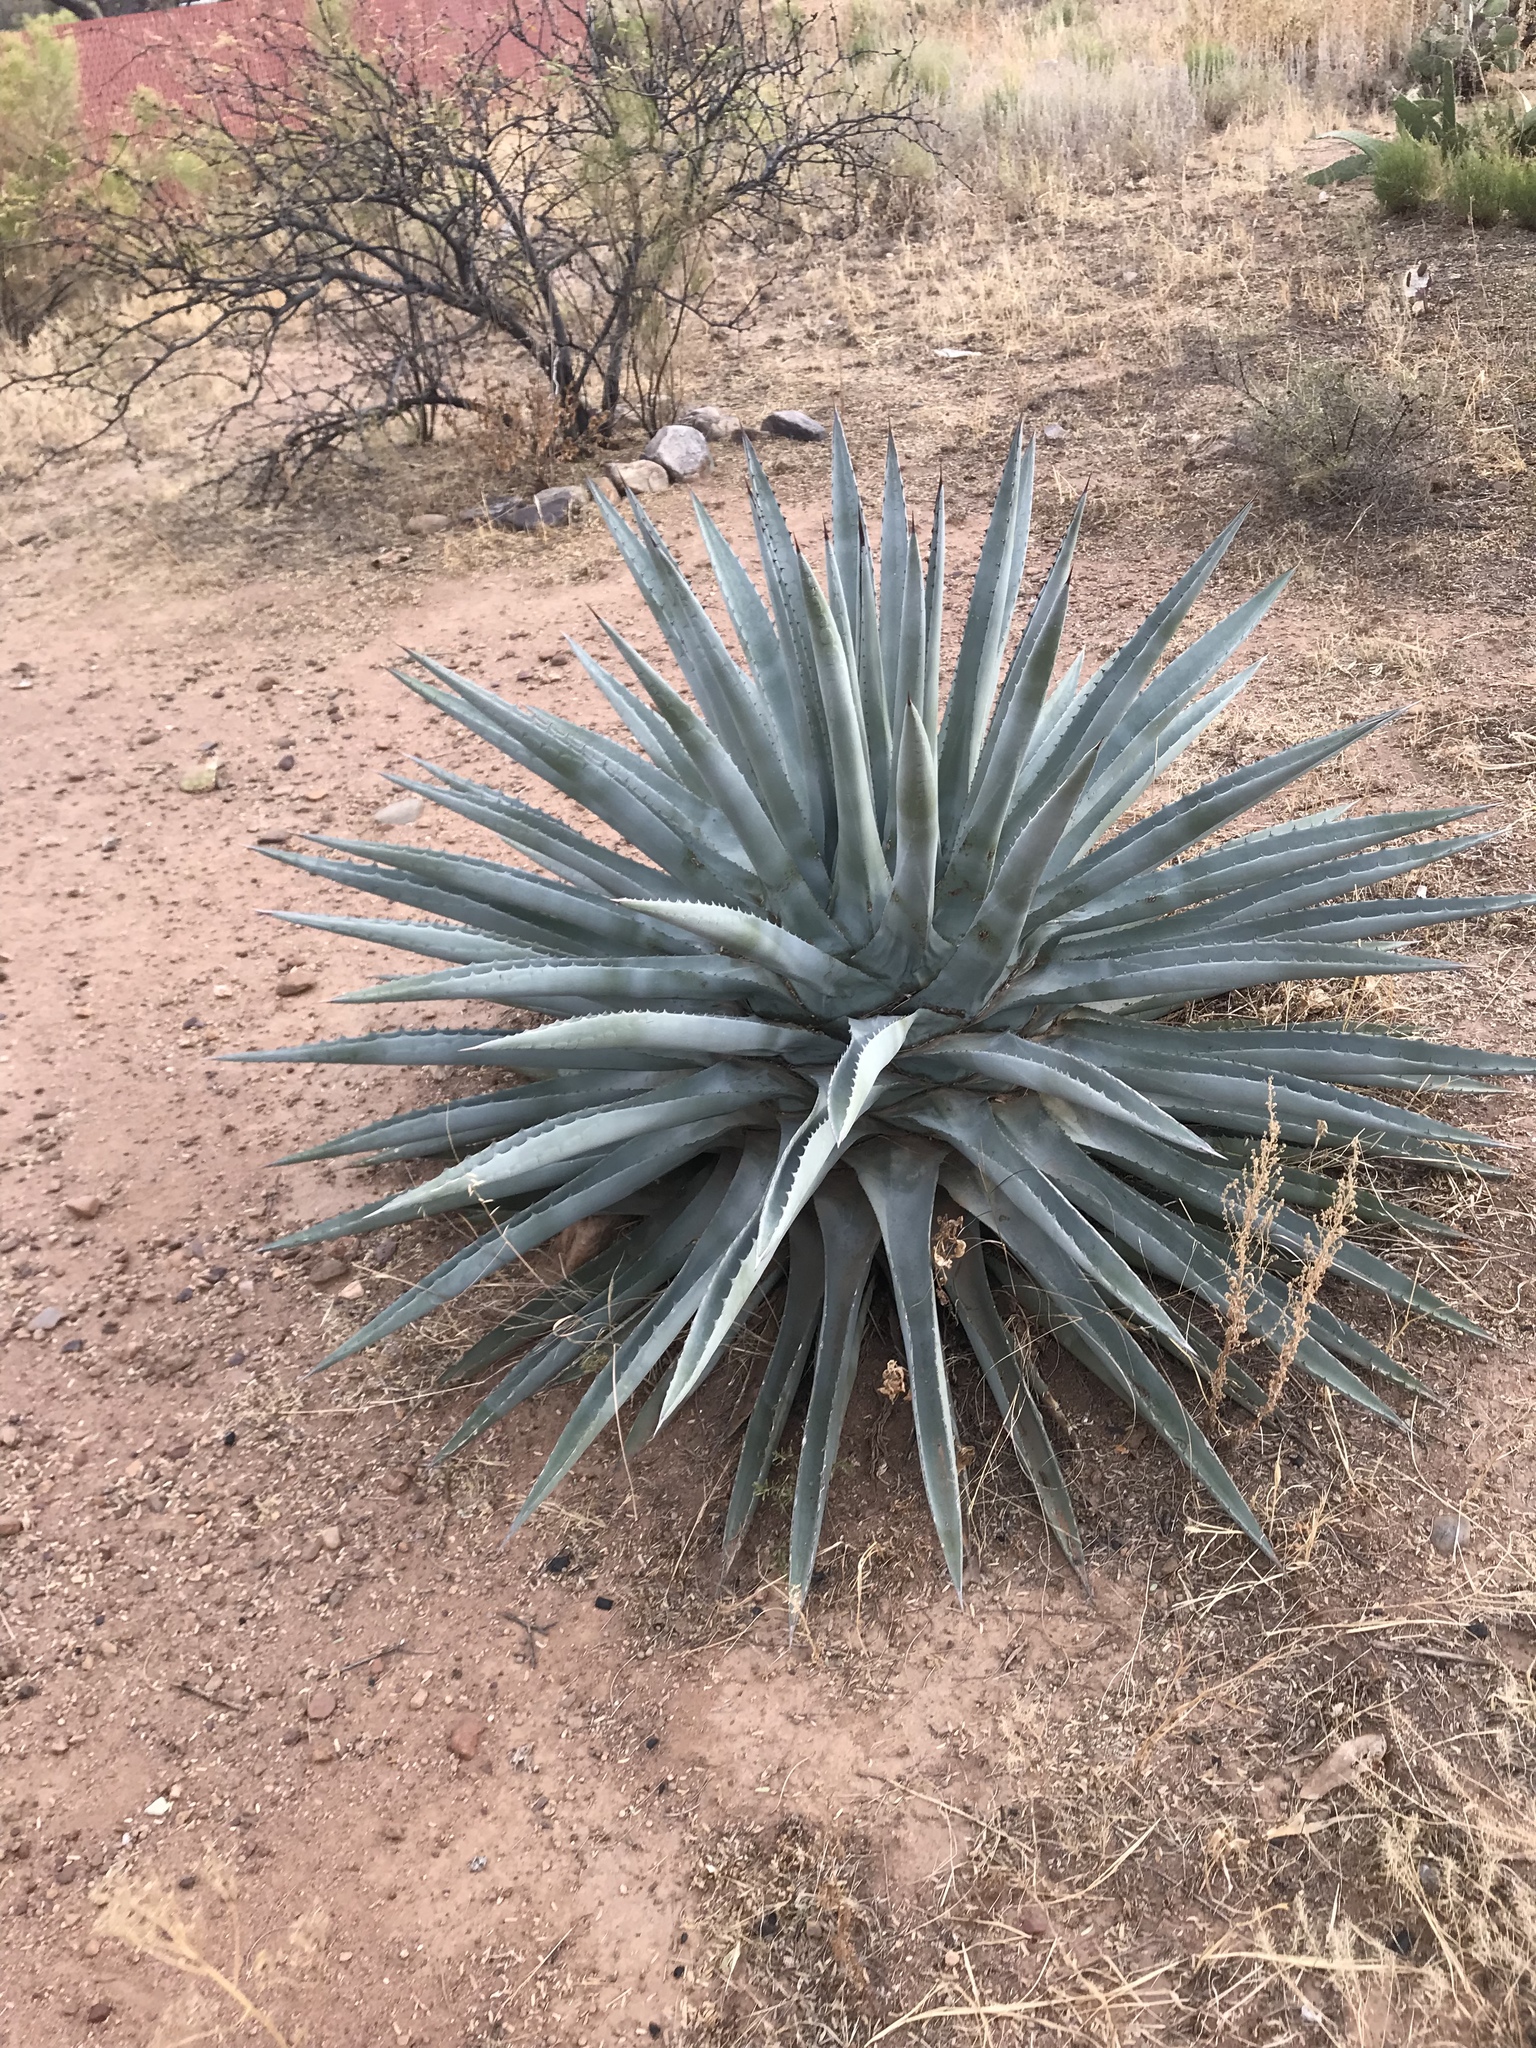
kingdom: Plantae
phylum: Tracheophyta
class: Liliopsida
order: Asparagales
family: Asparagaceae
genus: Agave
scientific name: Agave palmeri
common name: Palmer agave
